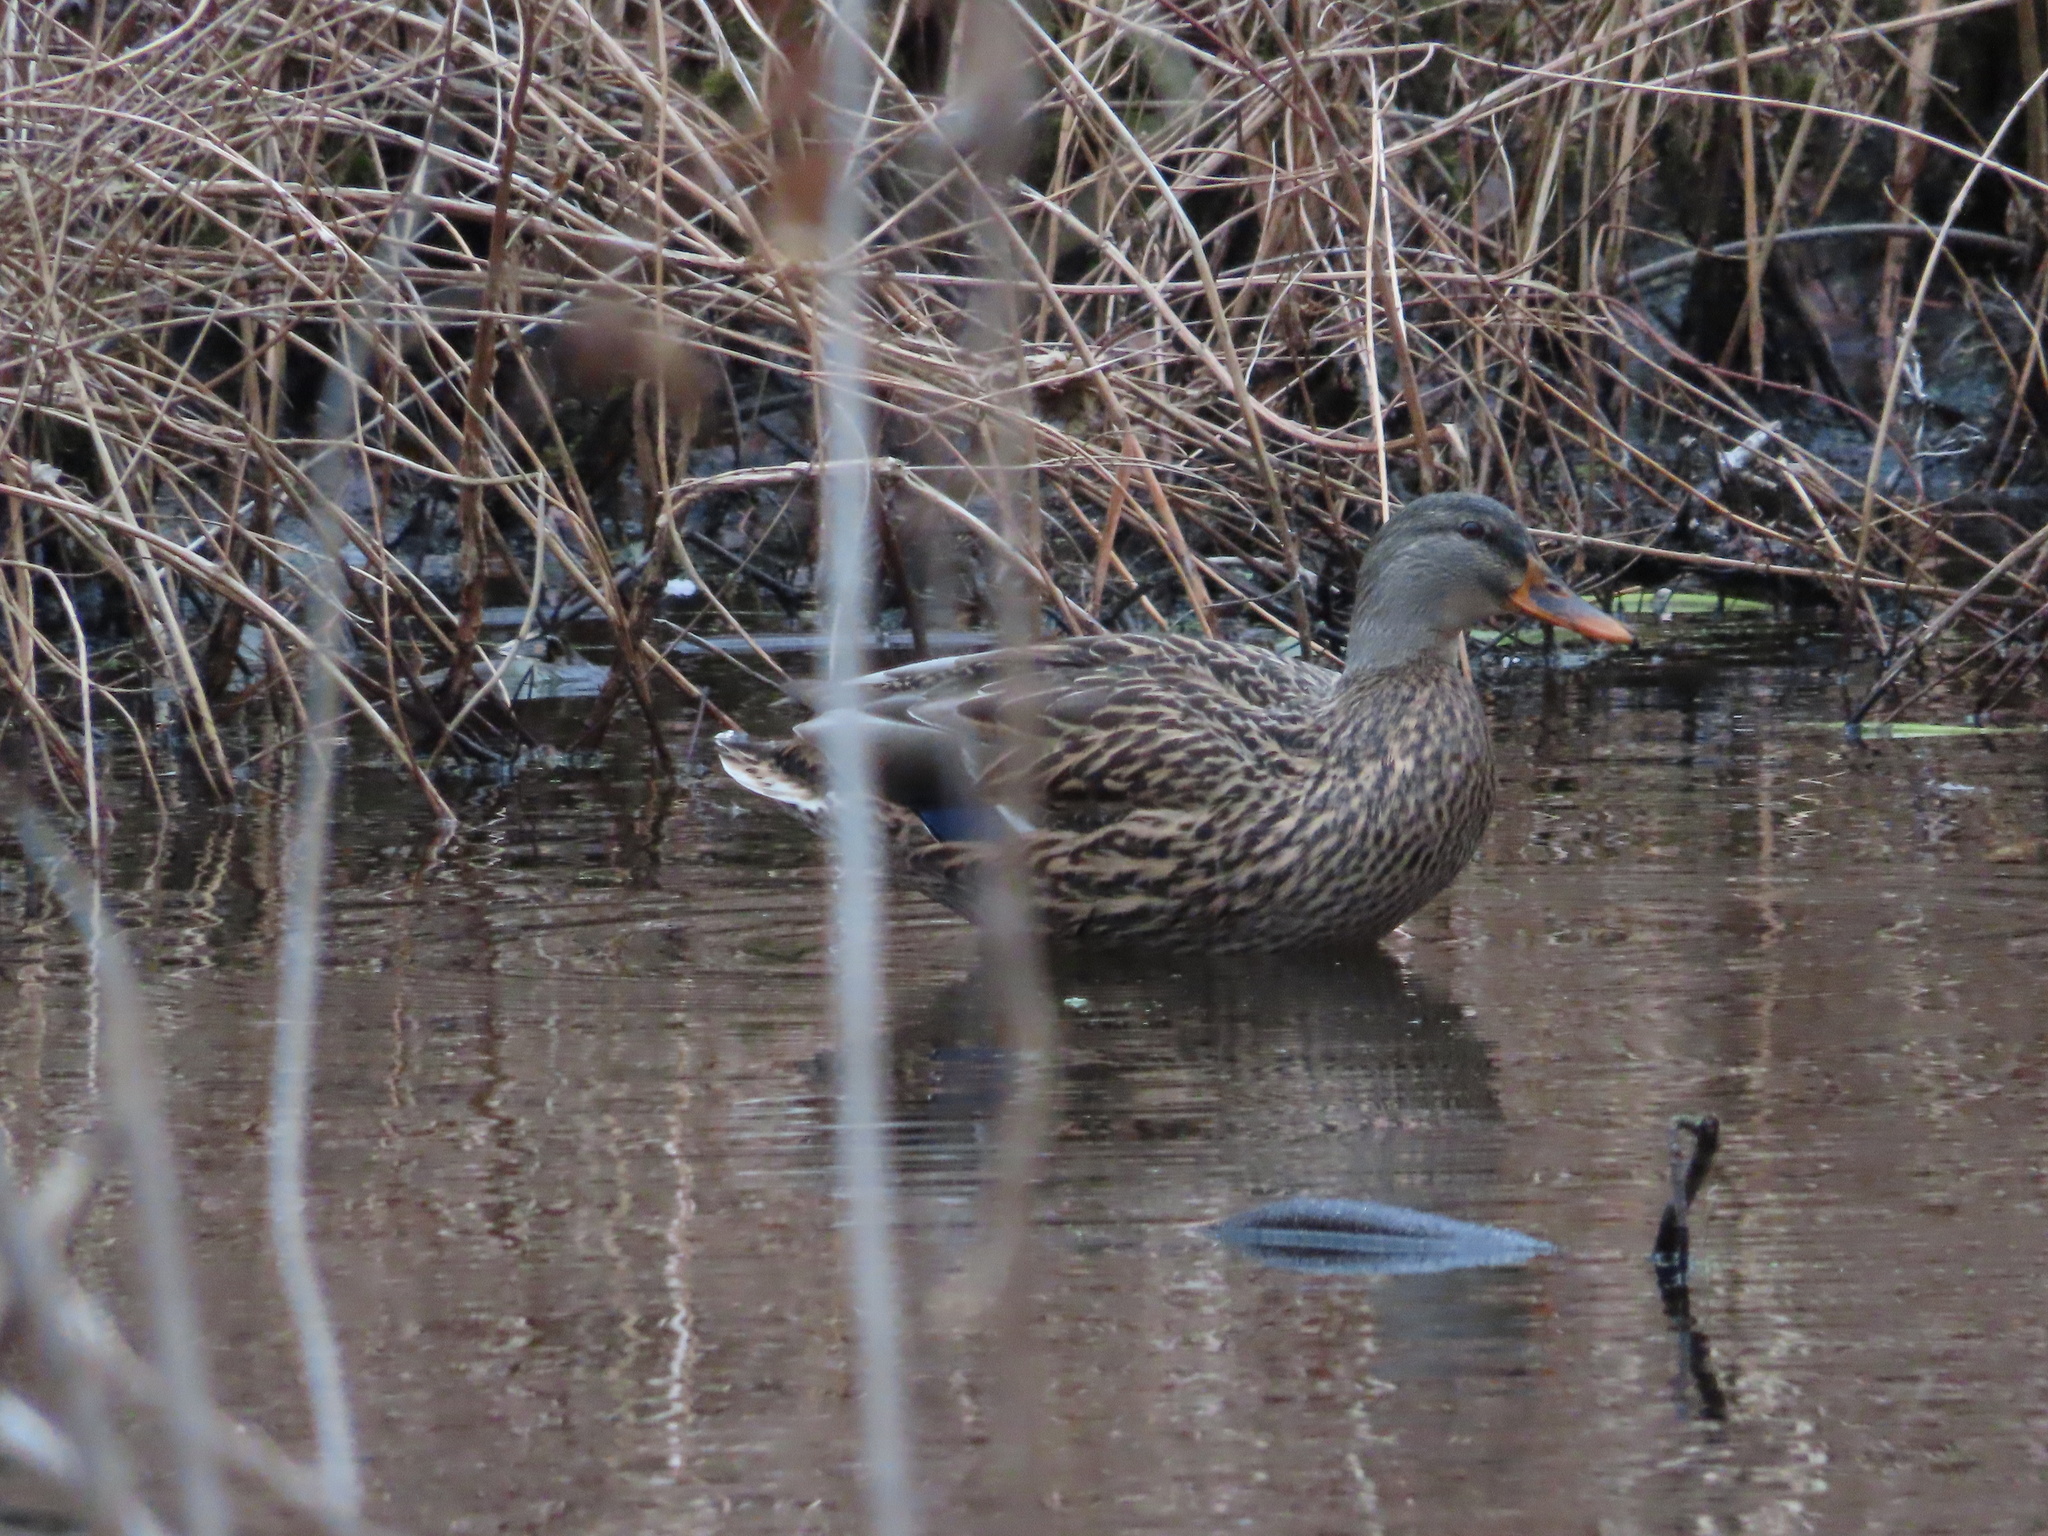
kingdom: Animalia
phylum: Chordata
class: Aves
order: Anseriformes
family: Anatidae
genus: Anas
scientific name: Anas platyrhynchos
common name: Mallard
